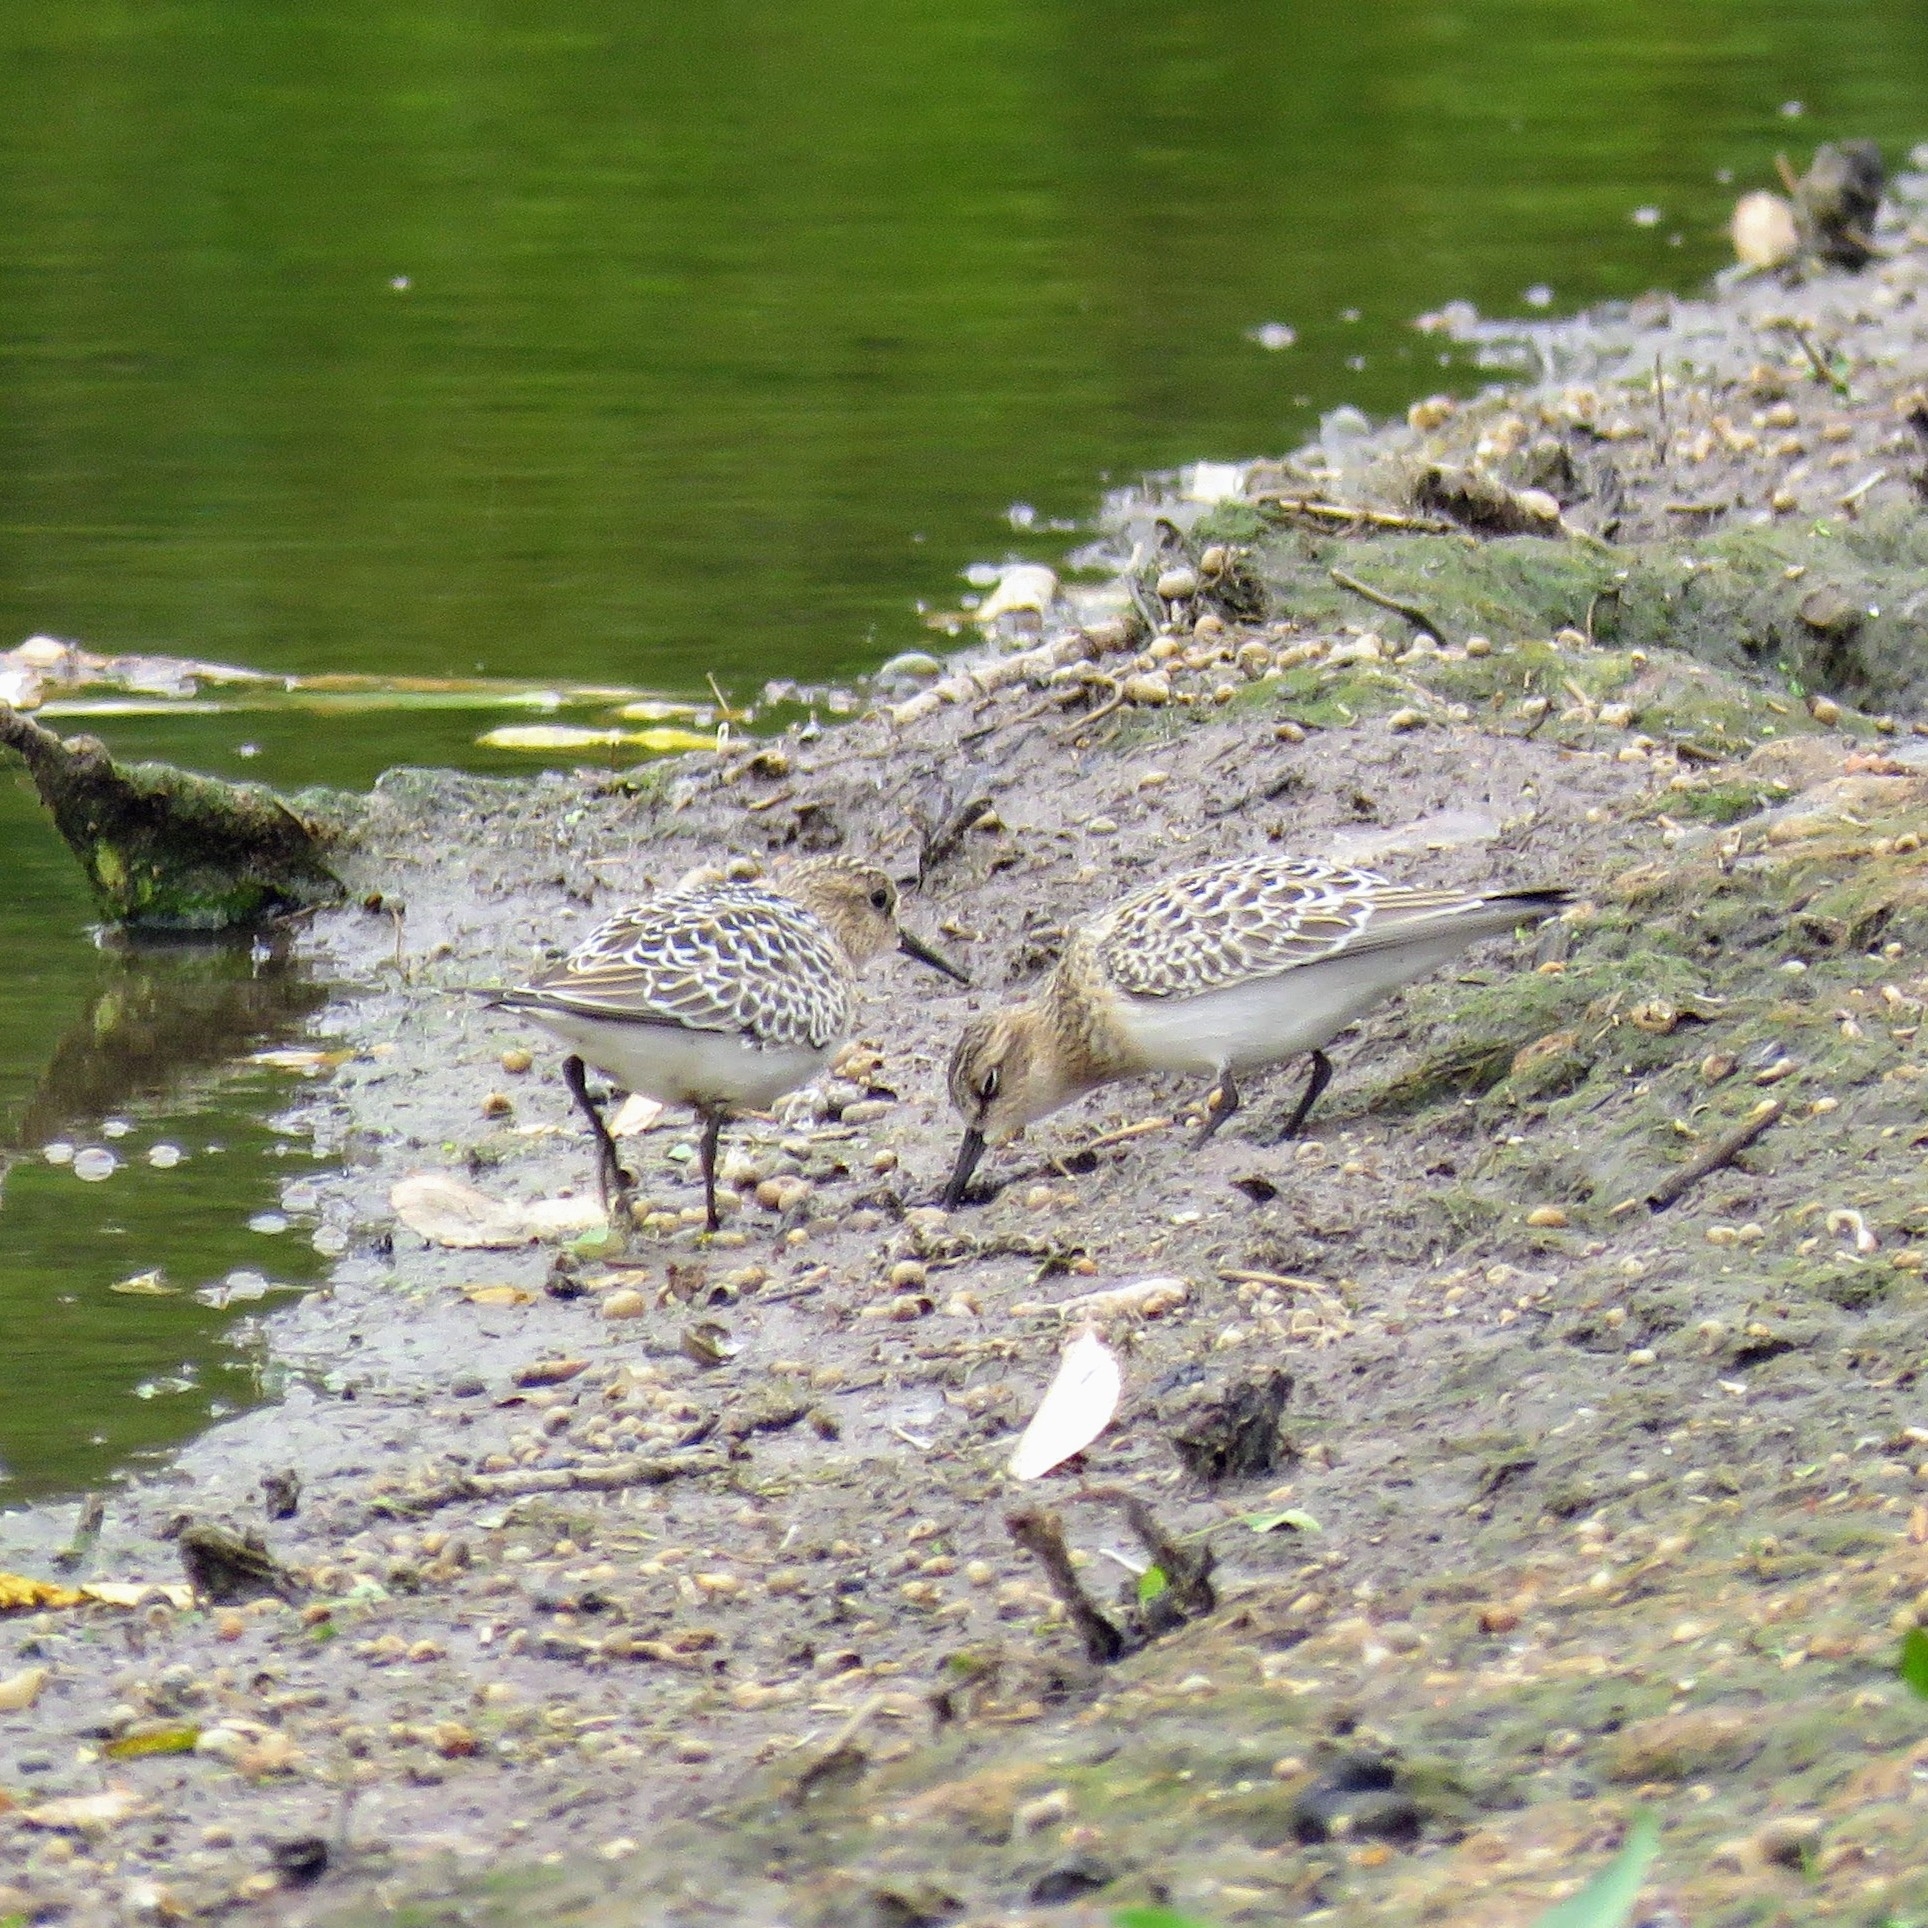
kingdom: Animalia
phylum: Chordata
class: Aves
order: Charadriiformes
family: Scolopacidae
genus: Calidris
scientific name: Calidris bairdii
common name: Baird's sandpiper
